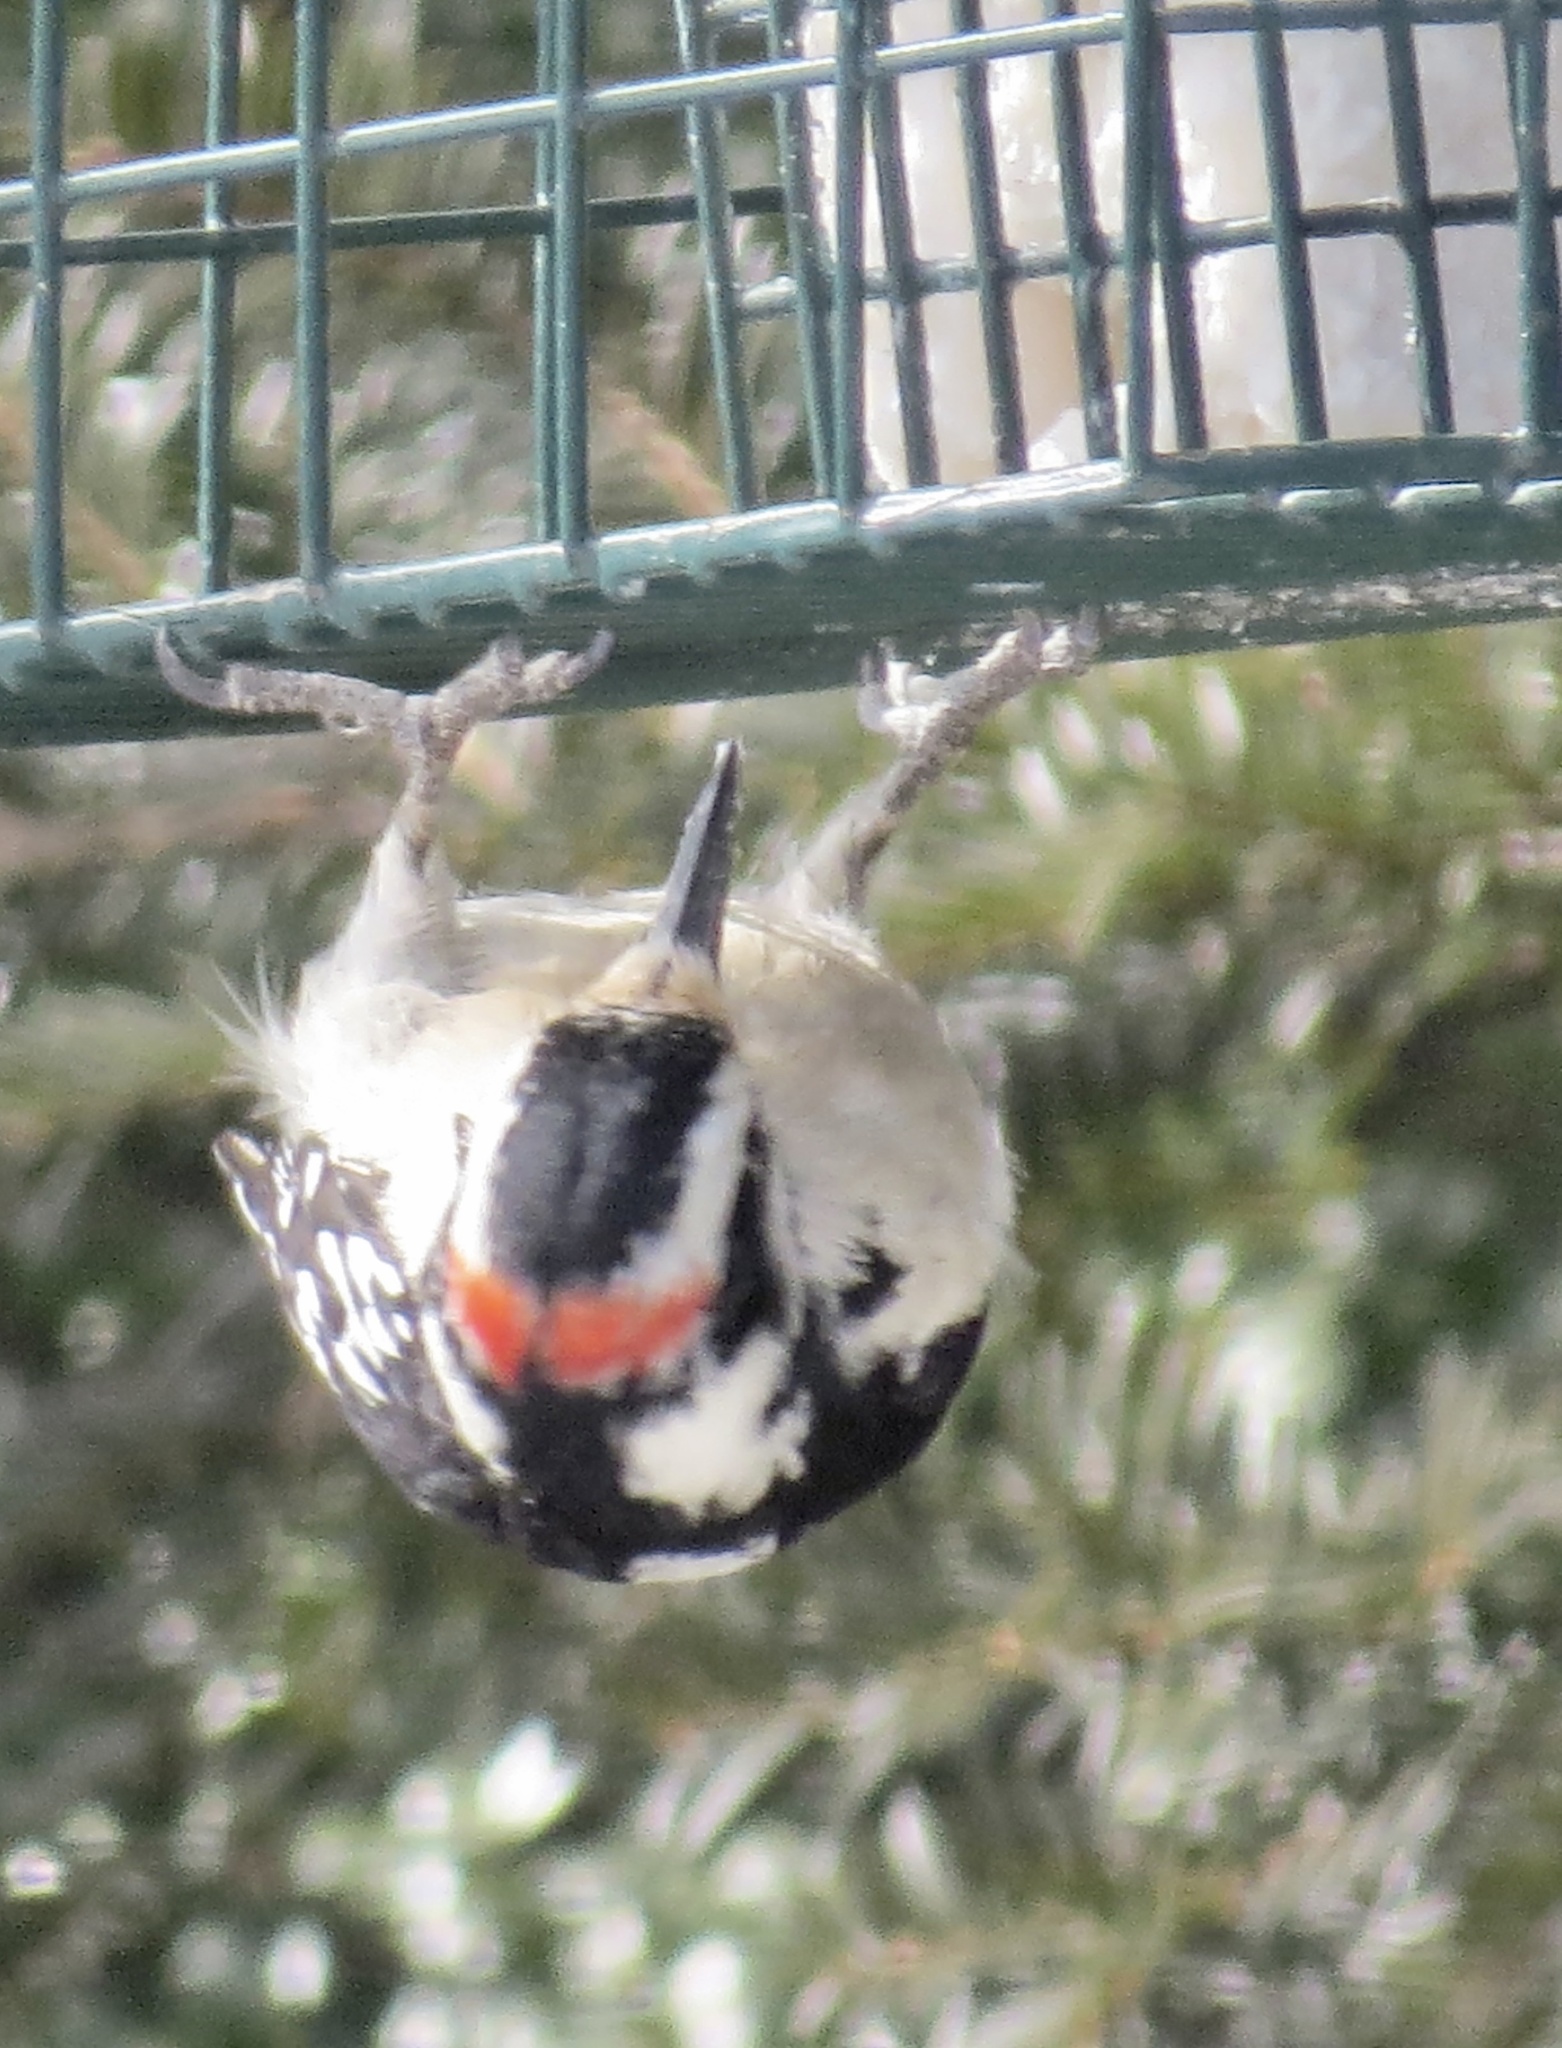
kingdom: Animalia
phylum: Chordata
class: Aves
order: Piciformes
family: Picidae
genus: Dryobates
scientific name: Dryobates pubescens
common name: Downy woodpecker
